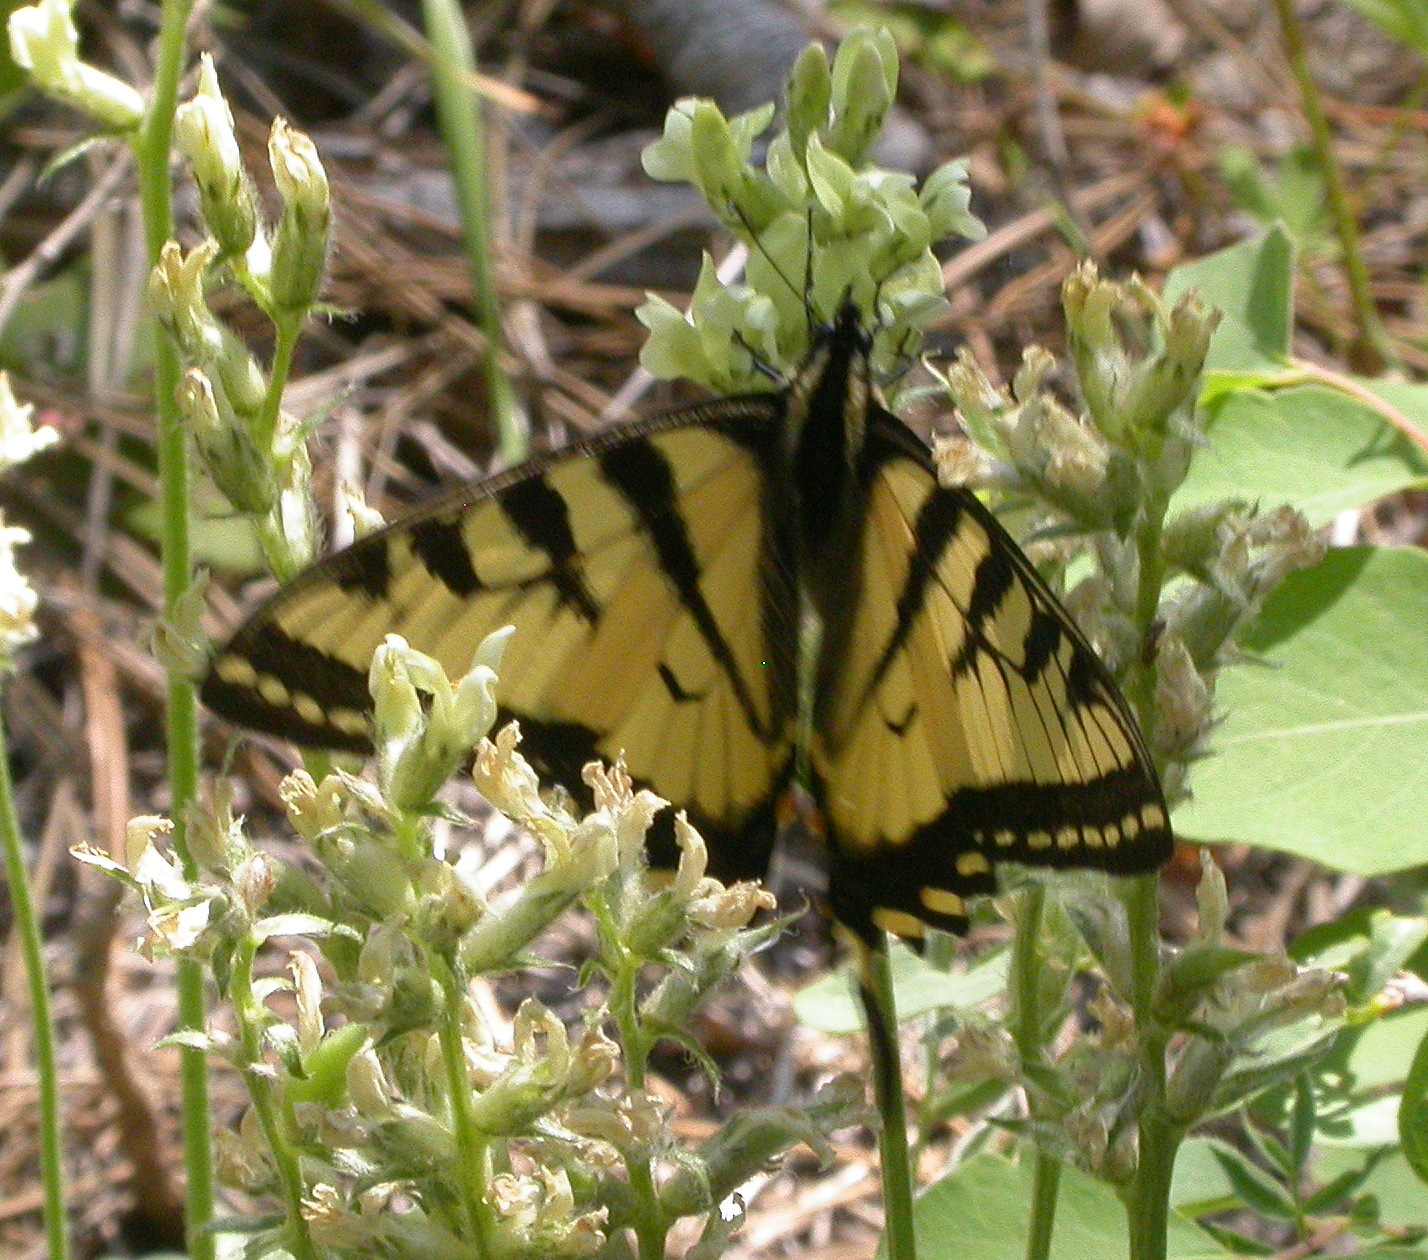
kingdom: Animalia
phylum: Arthropoda
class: Insecta
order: Lepidoptera
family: Papilionidae
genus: Papilio
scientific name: Papilio canadensis
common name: Canadian tiger swallowtail
